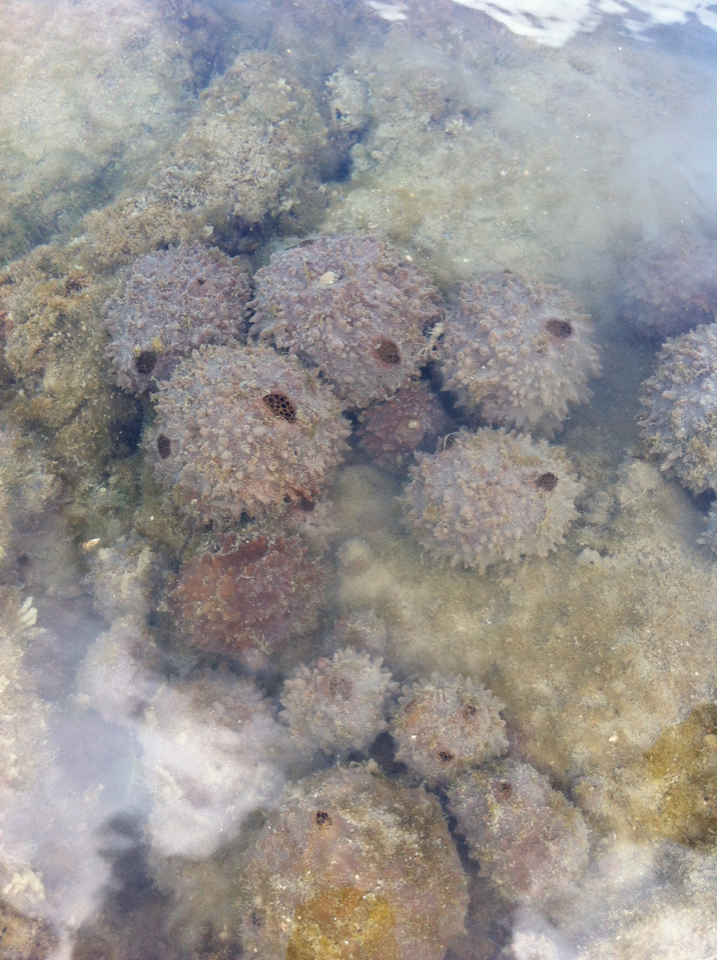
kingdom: Animalia
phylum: Porifera
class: Demospongiae
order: Suberitida
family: Suberitidae
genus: Aaptos
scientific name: Aaptos tenta
